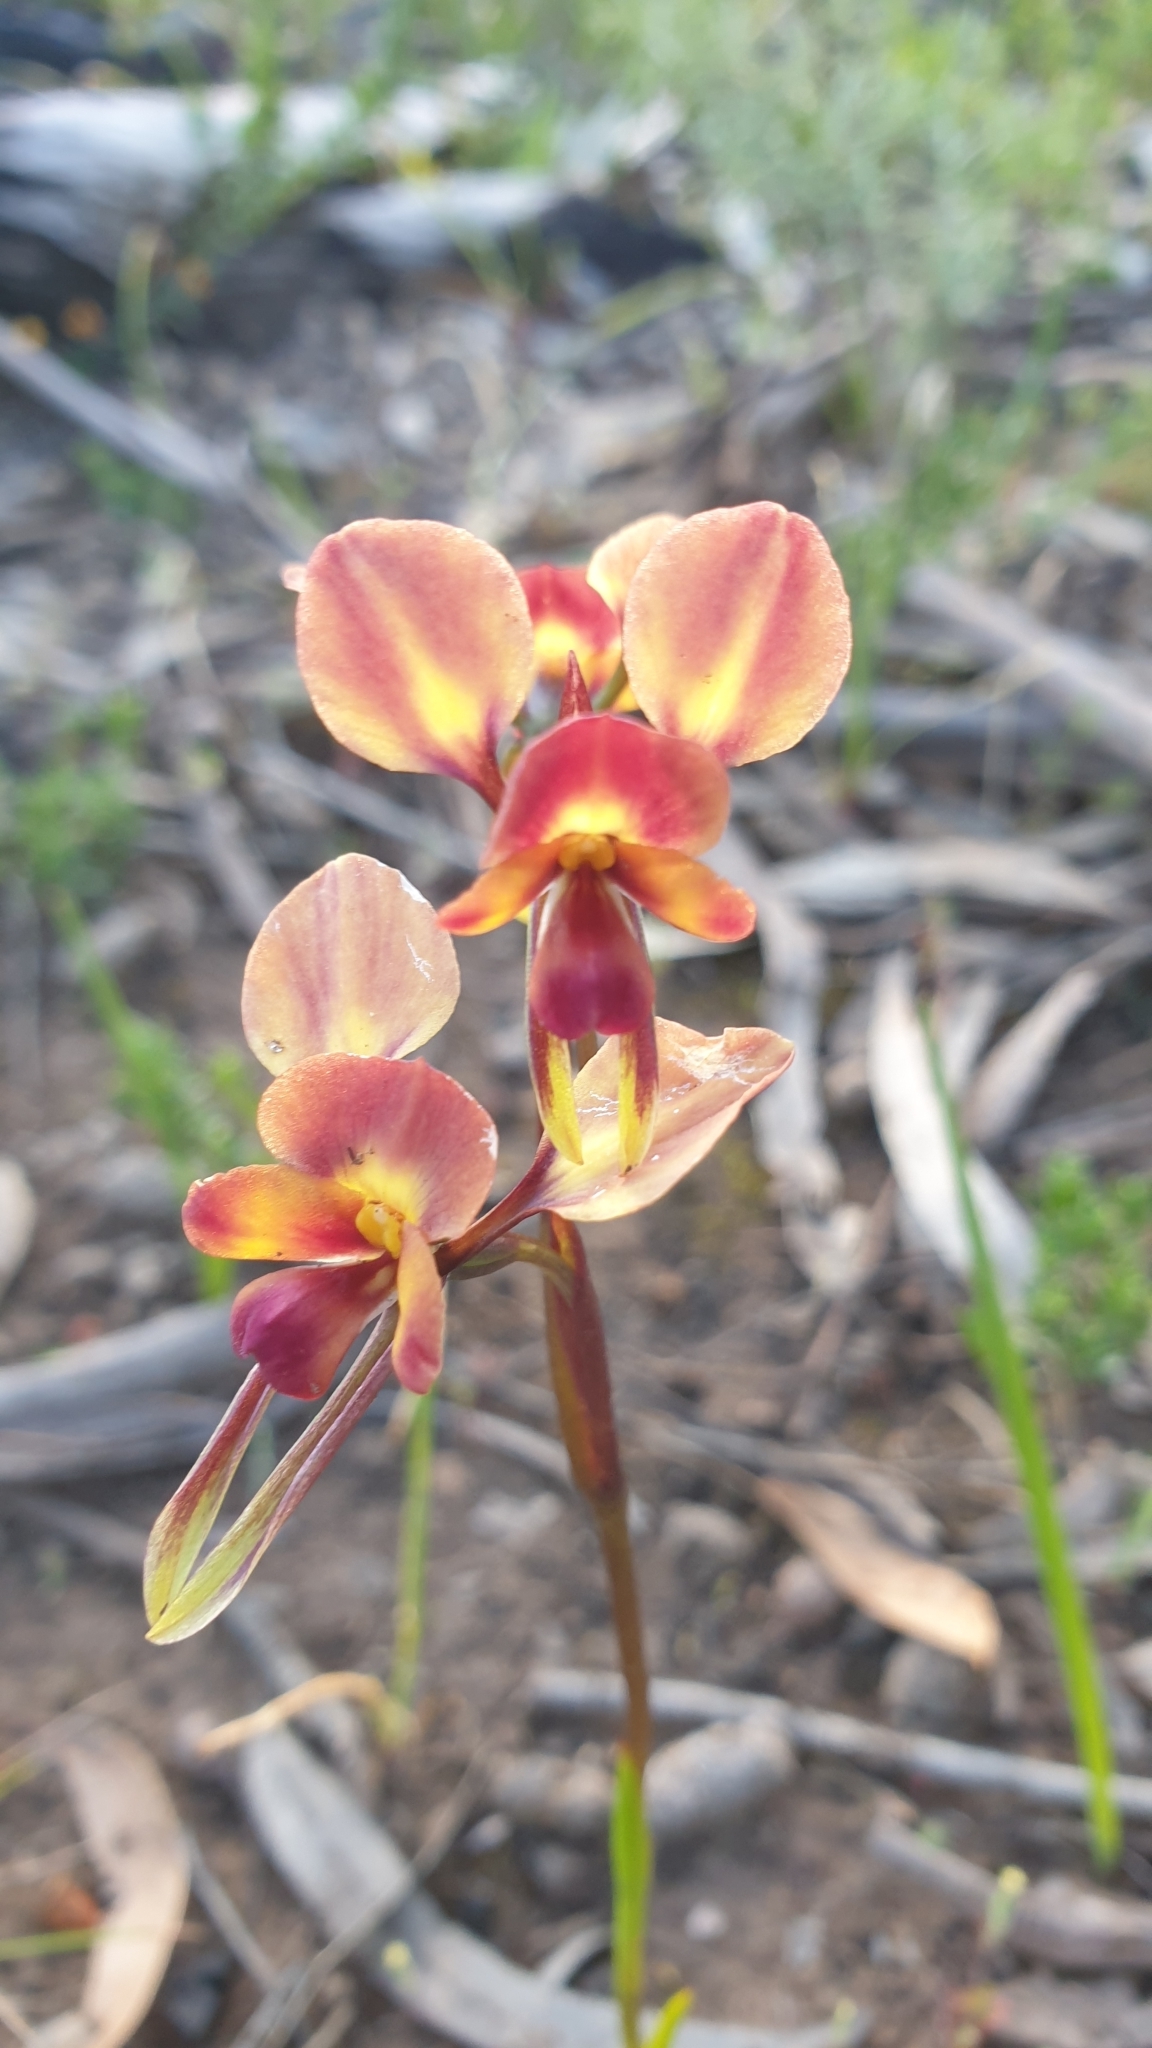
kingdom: Plantae
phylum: Tracheophyta
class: Liliopsida
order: Asparagales
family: Orchidaceae
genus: Diuris
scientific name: Diuris orientis
